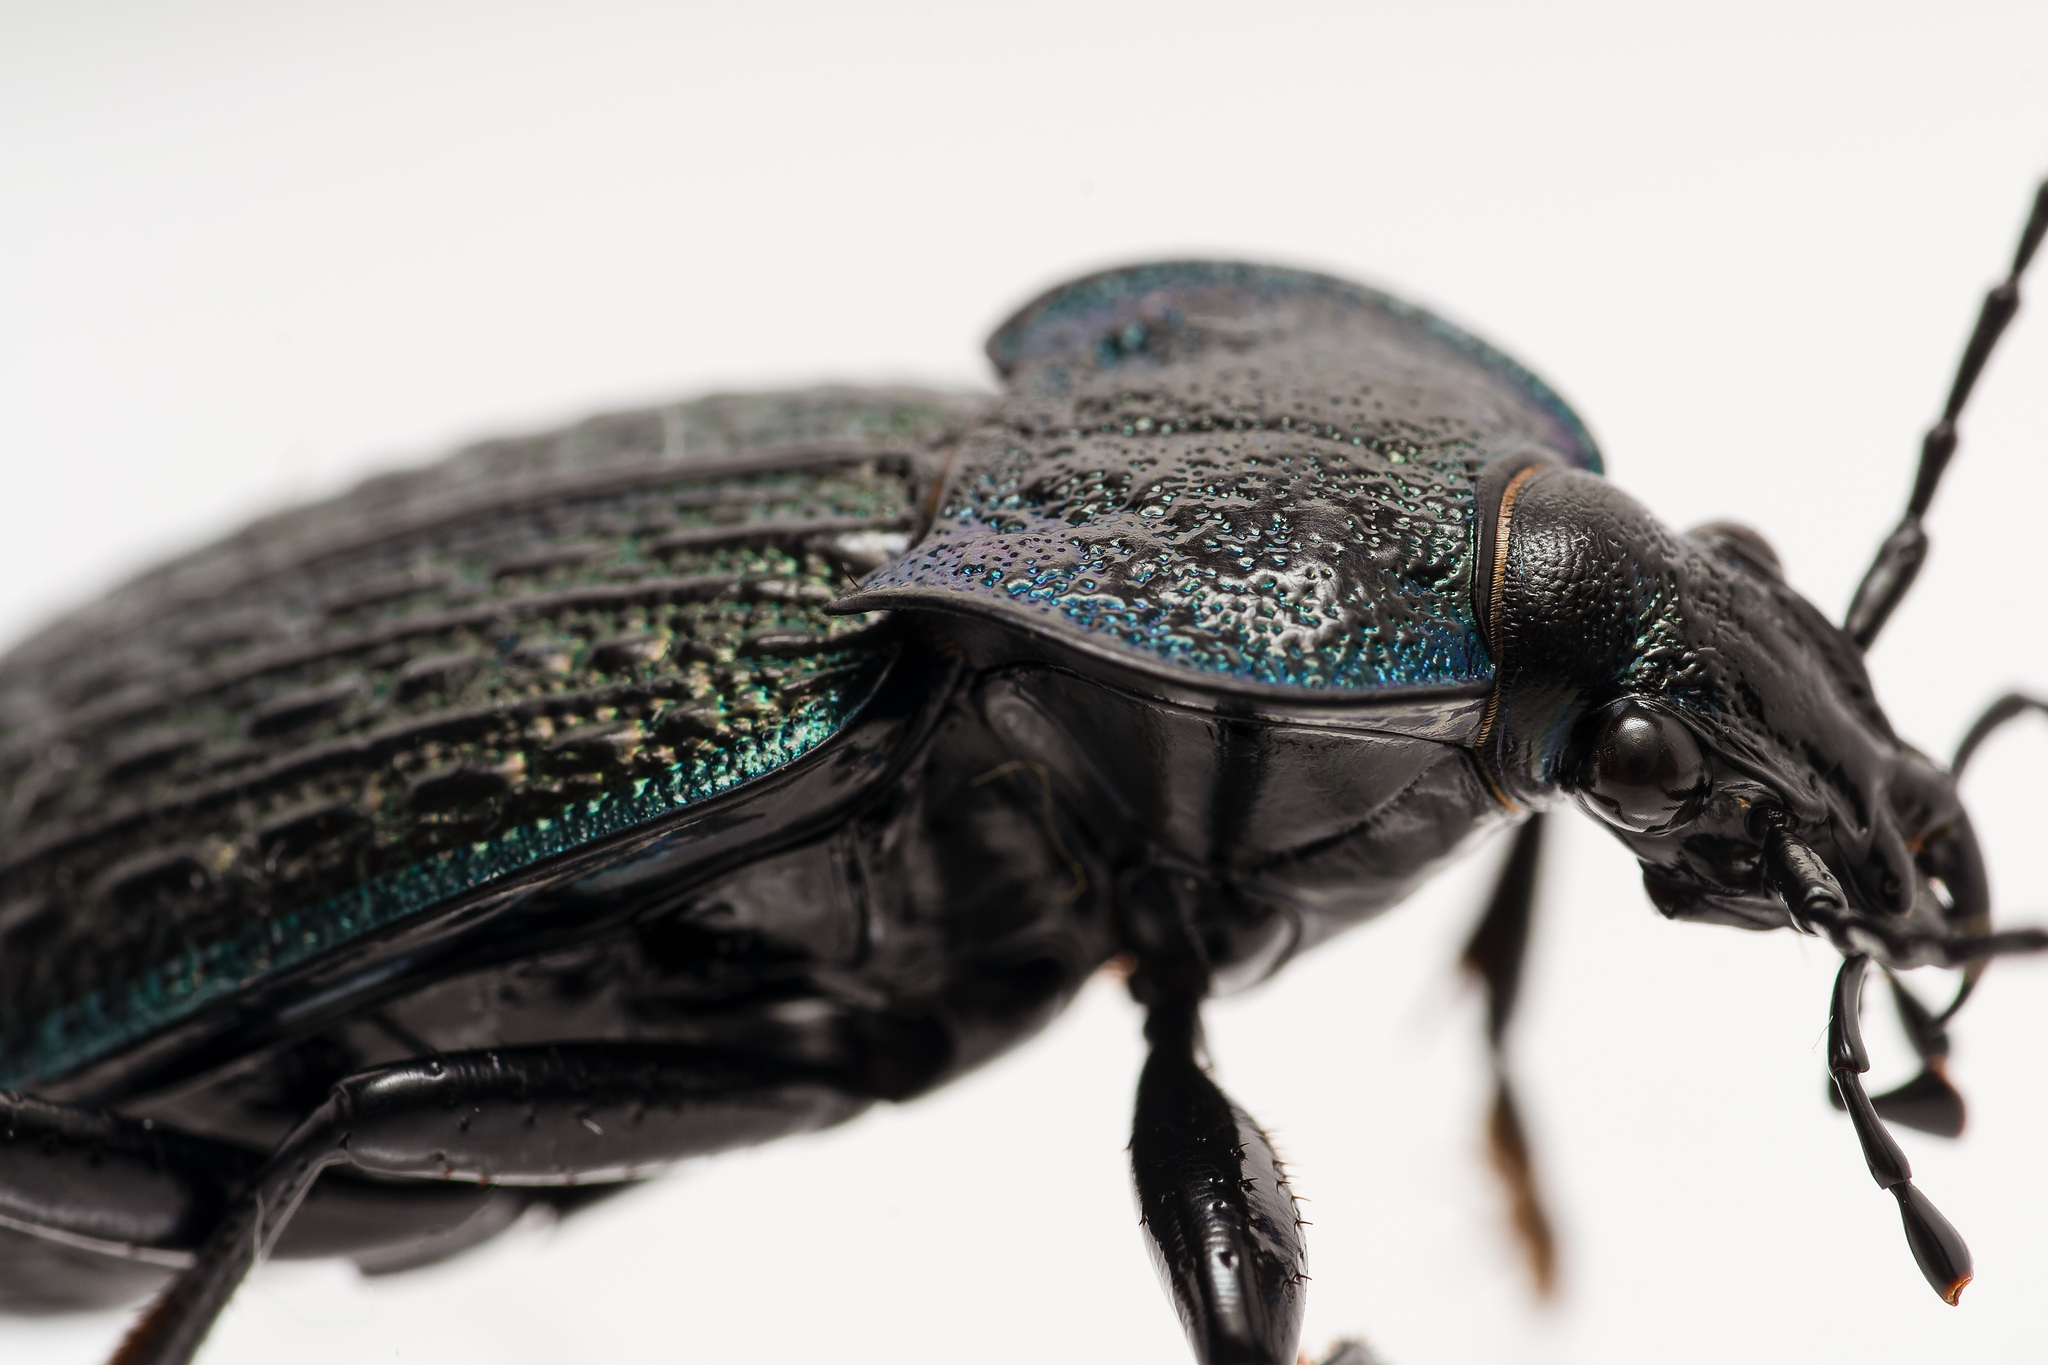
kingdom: Animalia
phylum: Arthropoda
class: Insecta
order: Coleoptera
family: Carabidae
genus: Carabus
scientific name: Carabus lusitanicus
